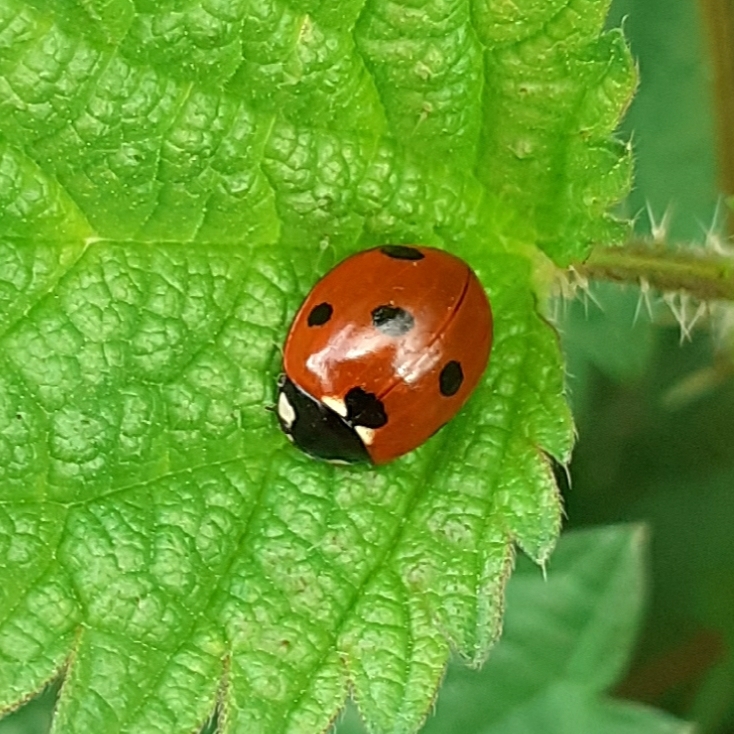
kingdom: Animalia
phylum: Arthropoda
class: Insecta
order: Coleoptera
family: Coccinellidae
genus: Coccinella
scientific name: Coccinella septempunctata
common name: Sevenspotted lady beetle
